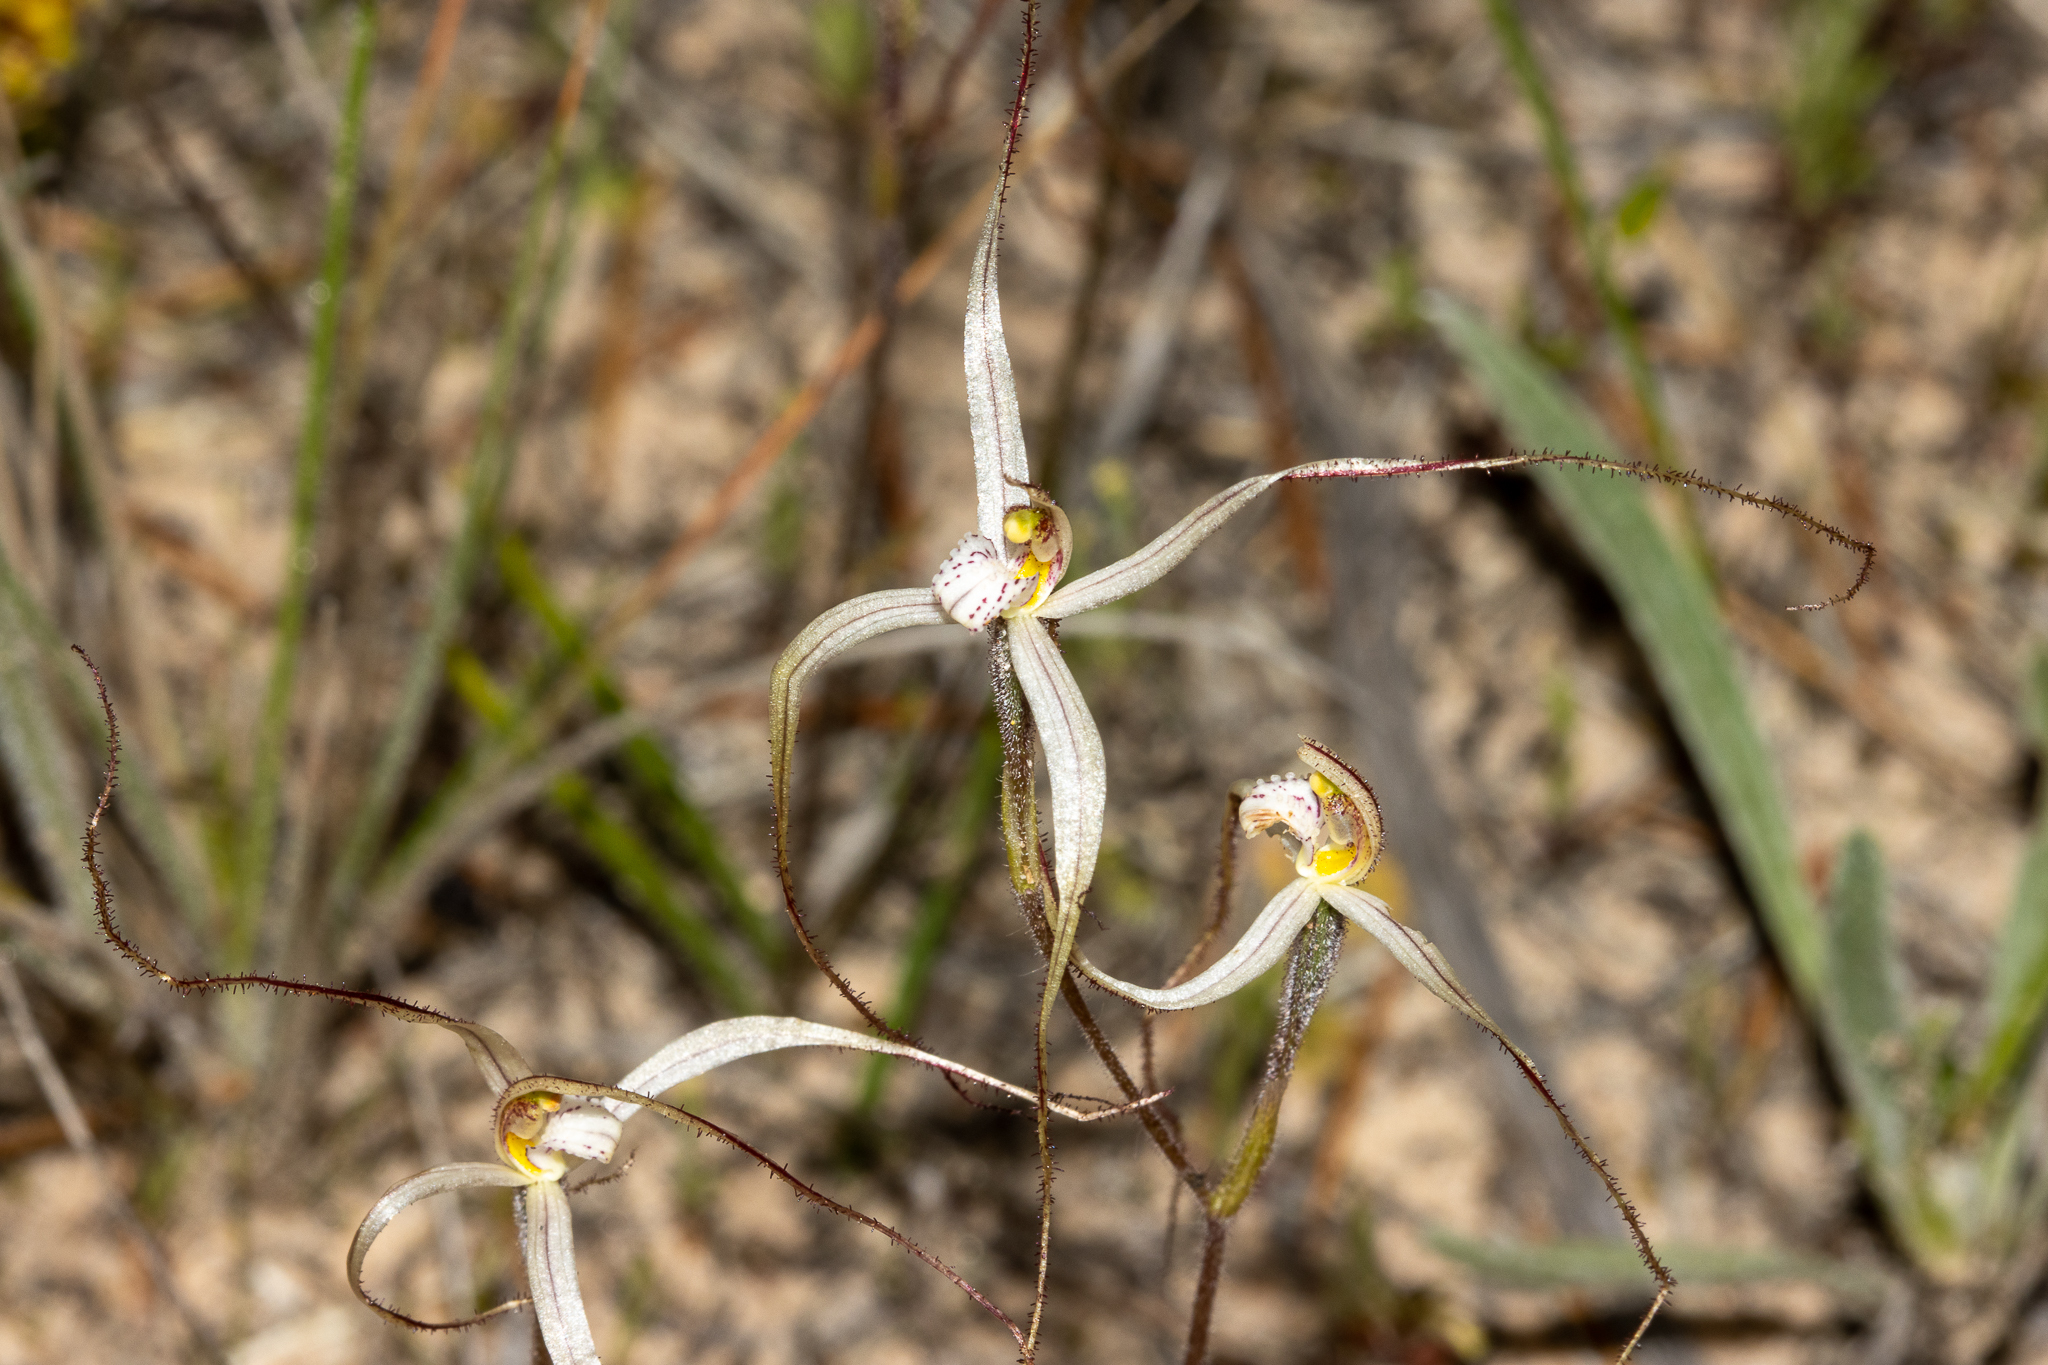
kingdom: Plantae
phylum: Tracheophyta
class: Liliopsida
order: Asparagales
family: Orchidaceae
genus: Caladenia
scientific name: Caladenia capillata
